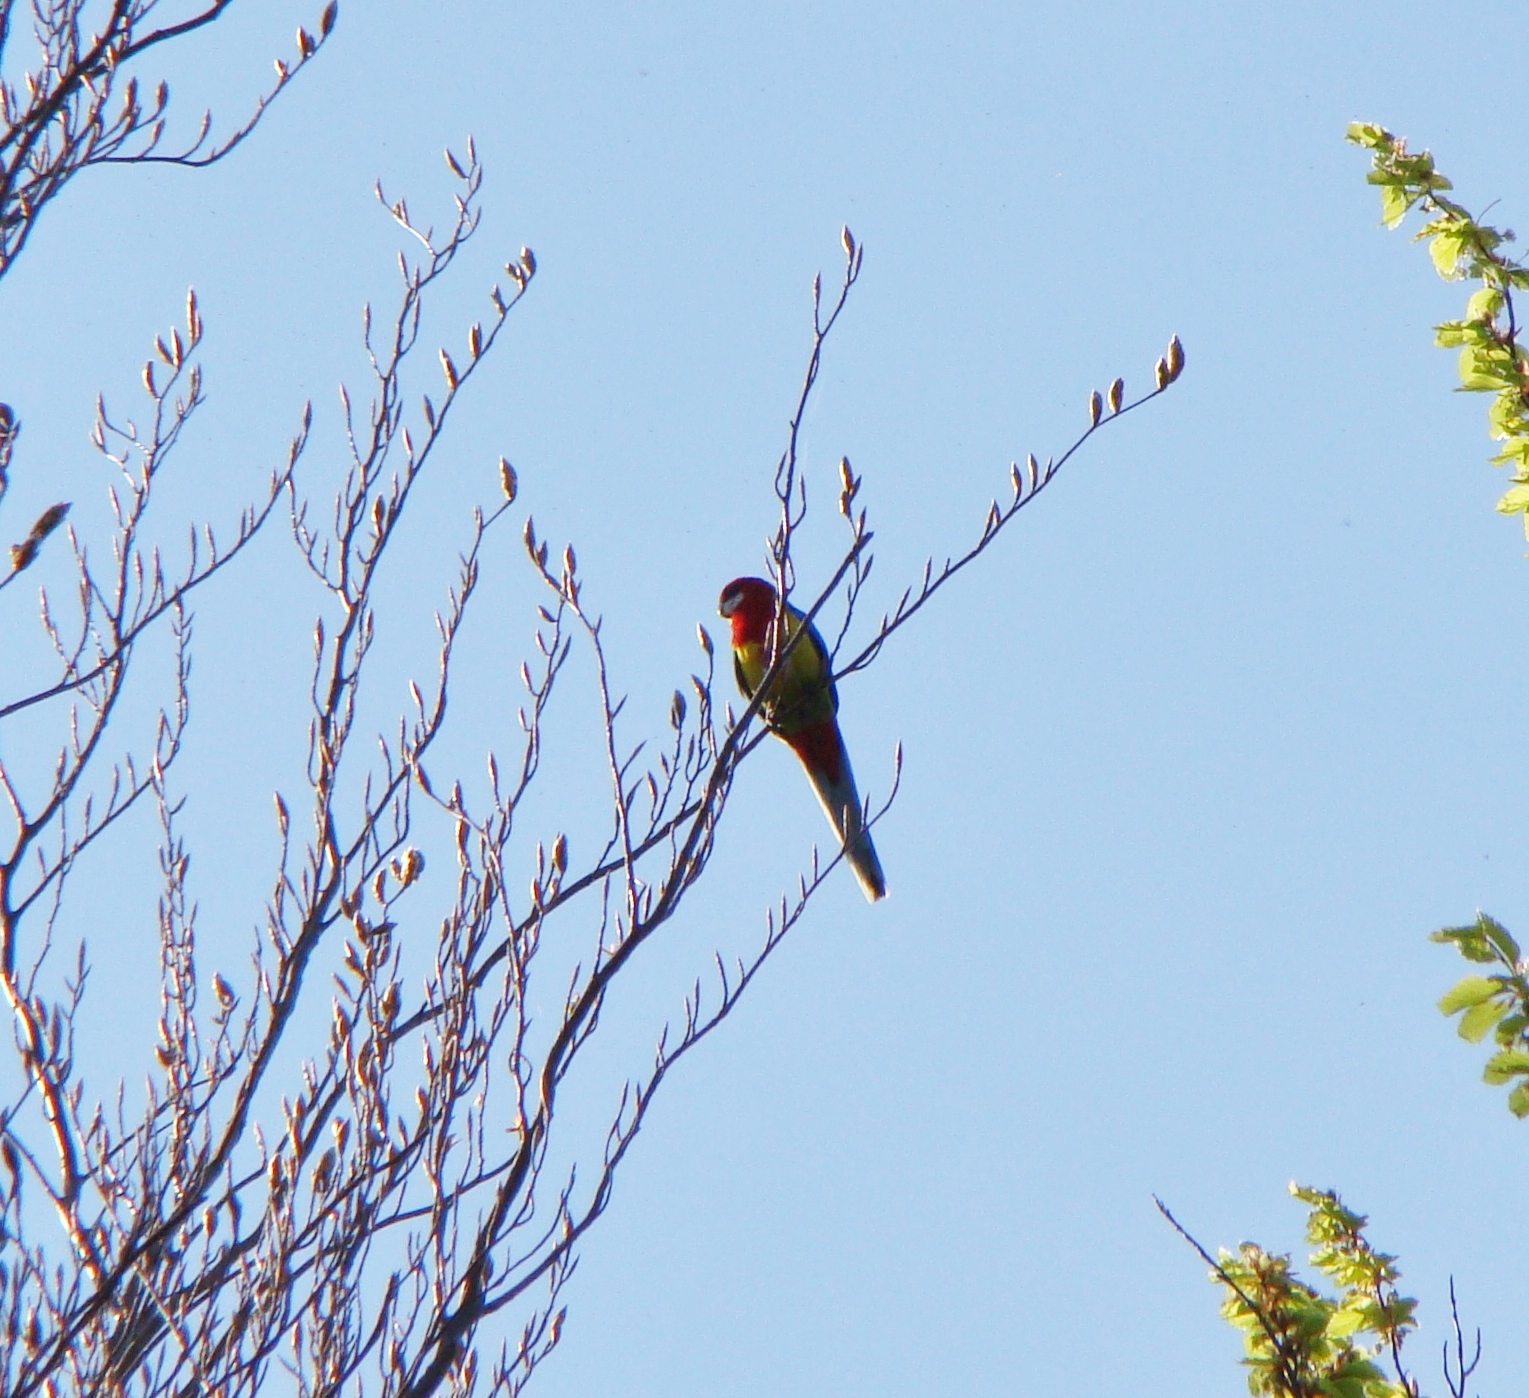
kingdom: Animalia
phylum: Chordata
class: Aves
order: Psittaciformes
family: Psittacidae
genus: Platycercus
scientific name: Platycercus eximius
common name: Eastern rosella
